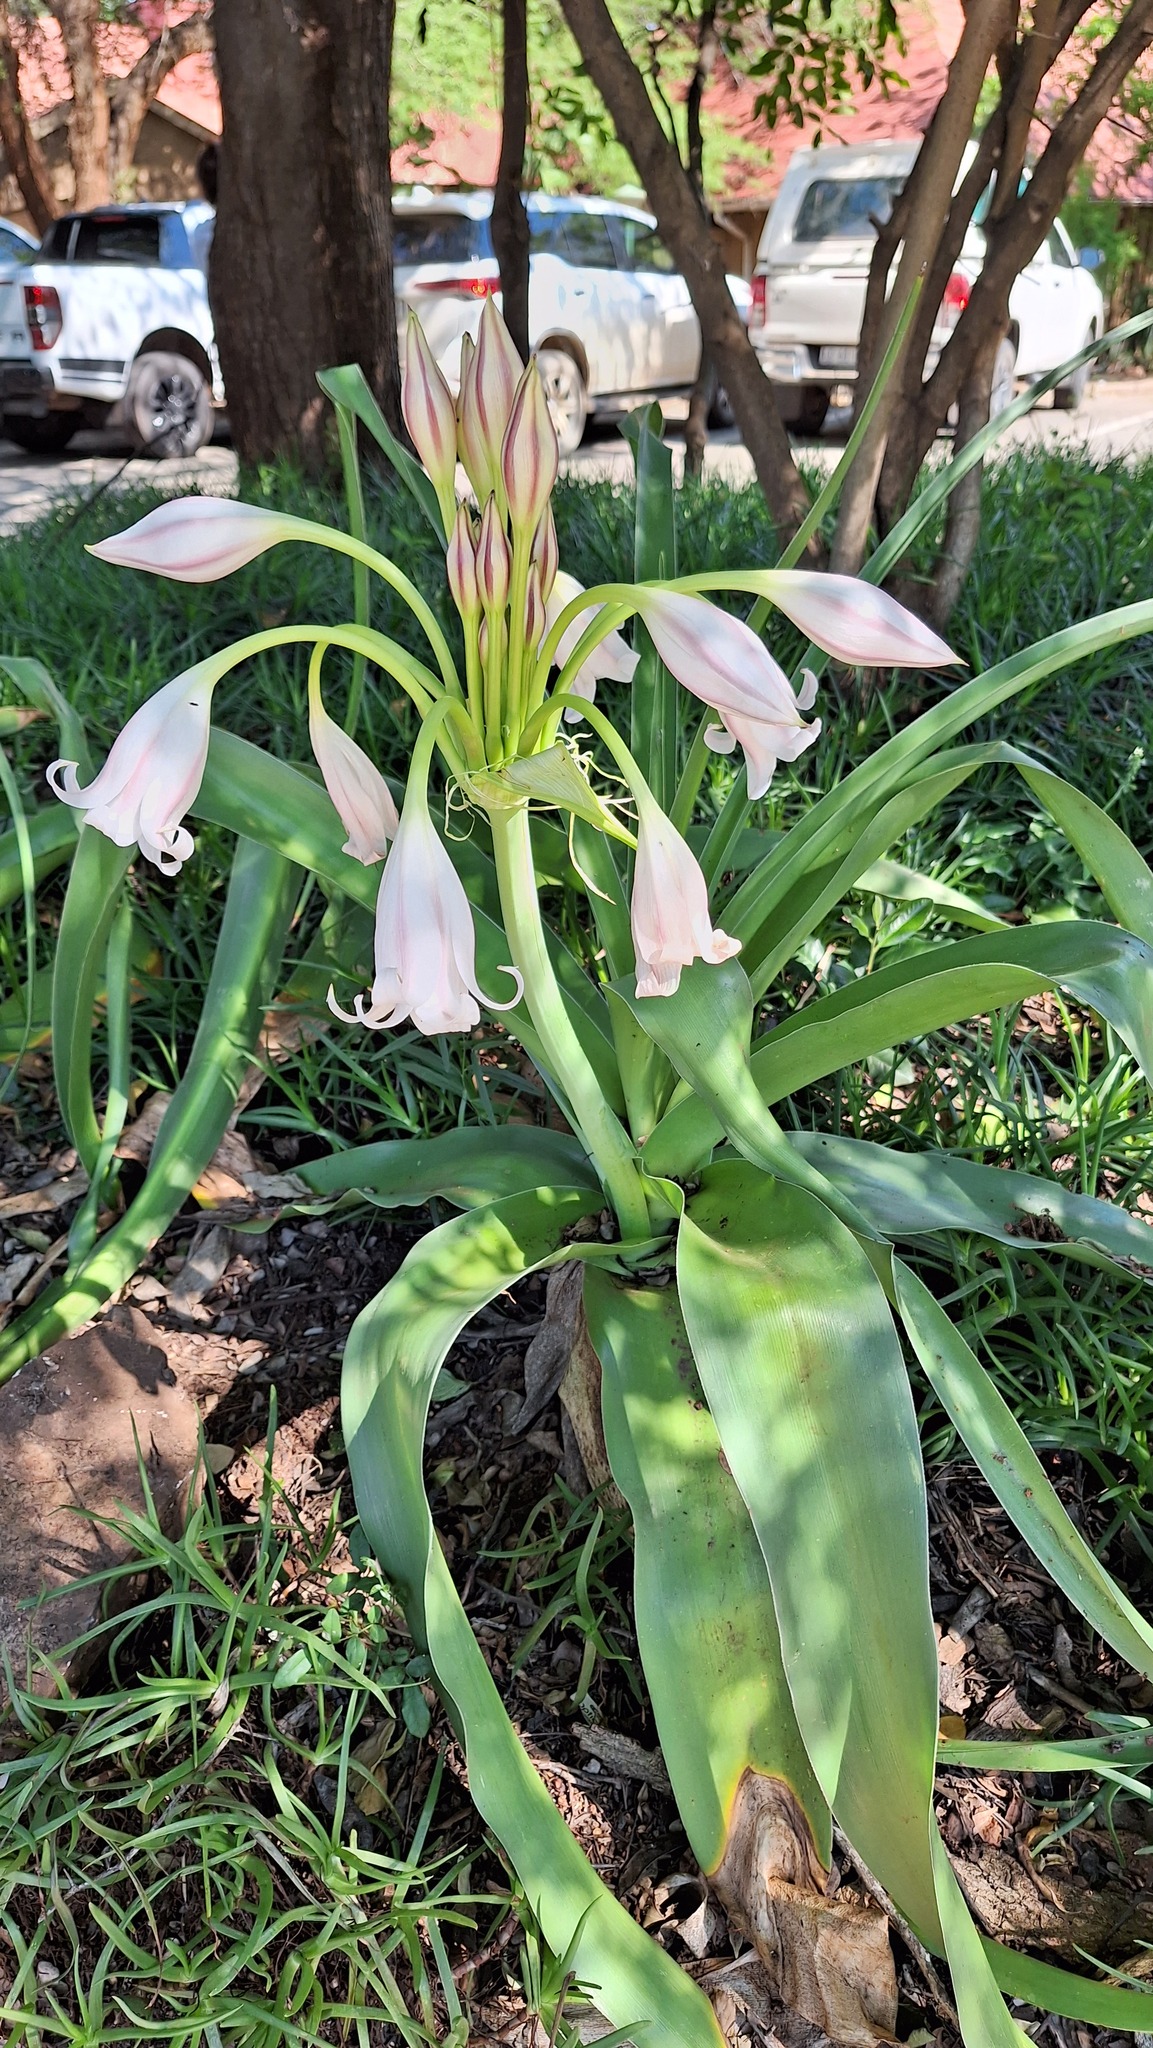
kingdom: Plantae
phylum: Tracheophyta
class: Liliopsida
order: Asparagales
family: Amaryllidaceae
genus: Crinum
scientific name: Crinum macowanii
